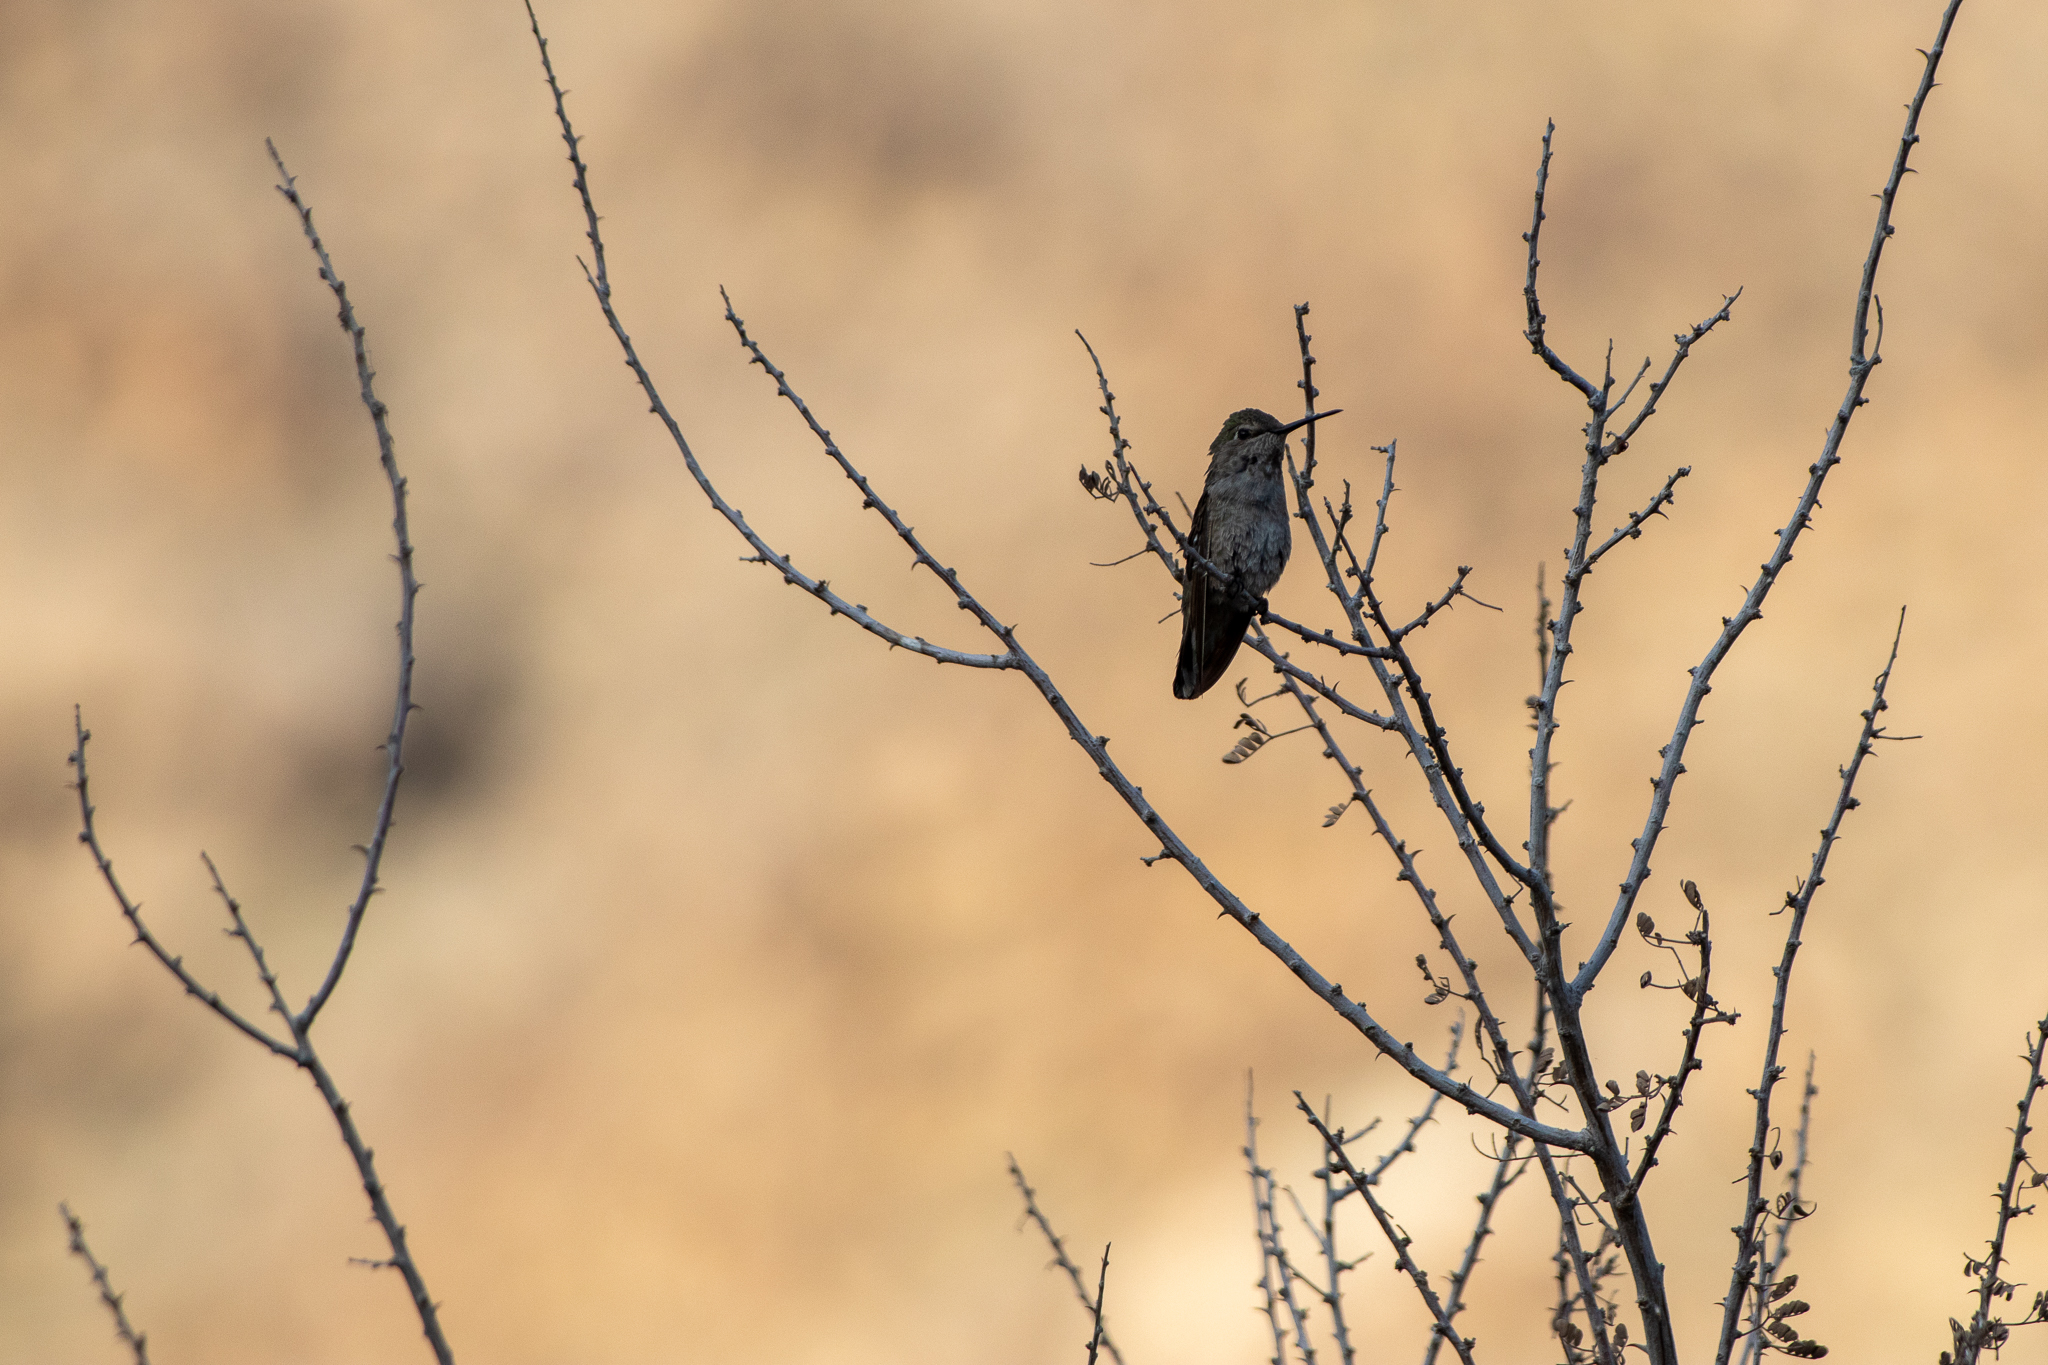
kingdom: Animalia
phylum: Chordata
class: Aves
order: Apodiformes
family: Trochilidae
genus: Calypte
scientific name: Calypte costae
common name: Costa's hummingbird
